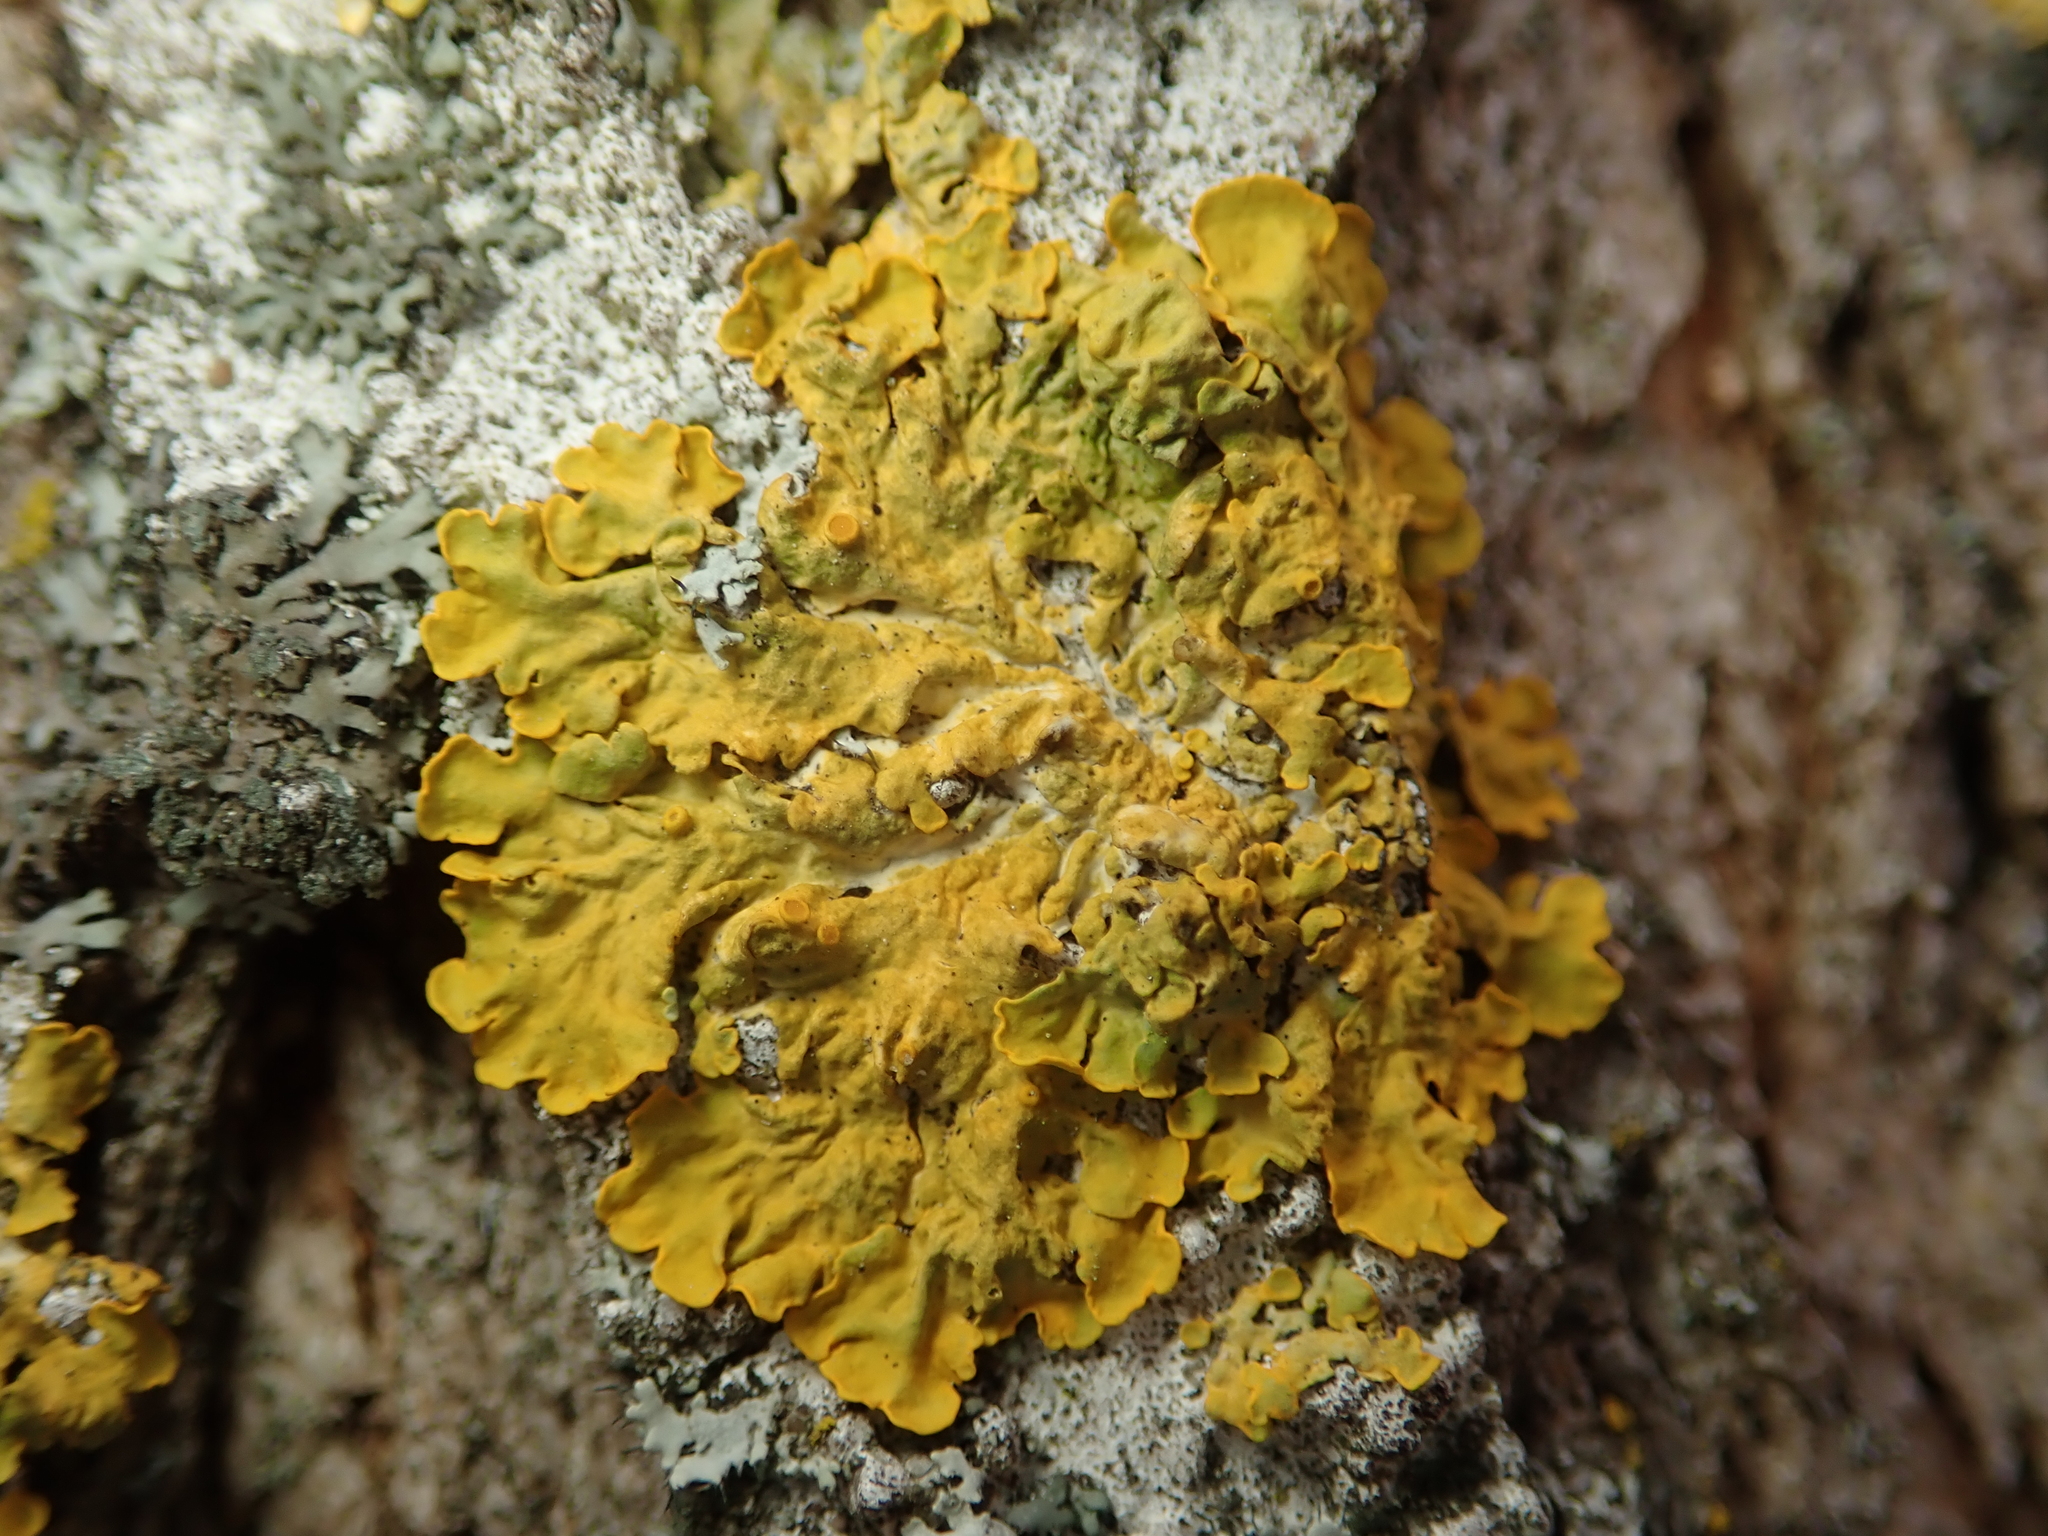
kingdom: Fungi
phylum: Ascomycota
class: Lecanoromycetes
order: Teloschistales
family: Teloschistaceae
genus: Xanthoria
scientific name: Xanthoria parietina
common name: Common orange lichen
